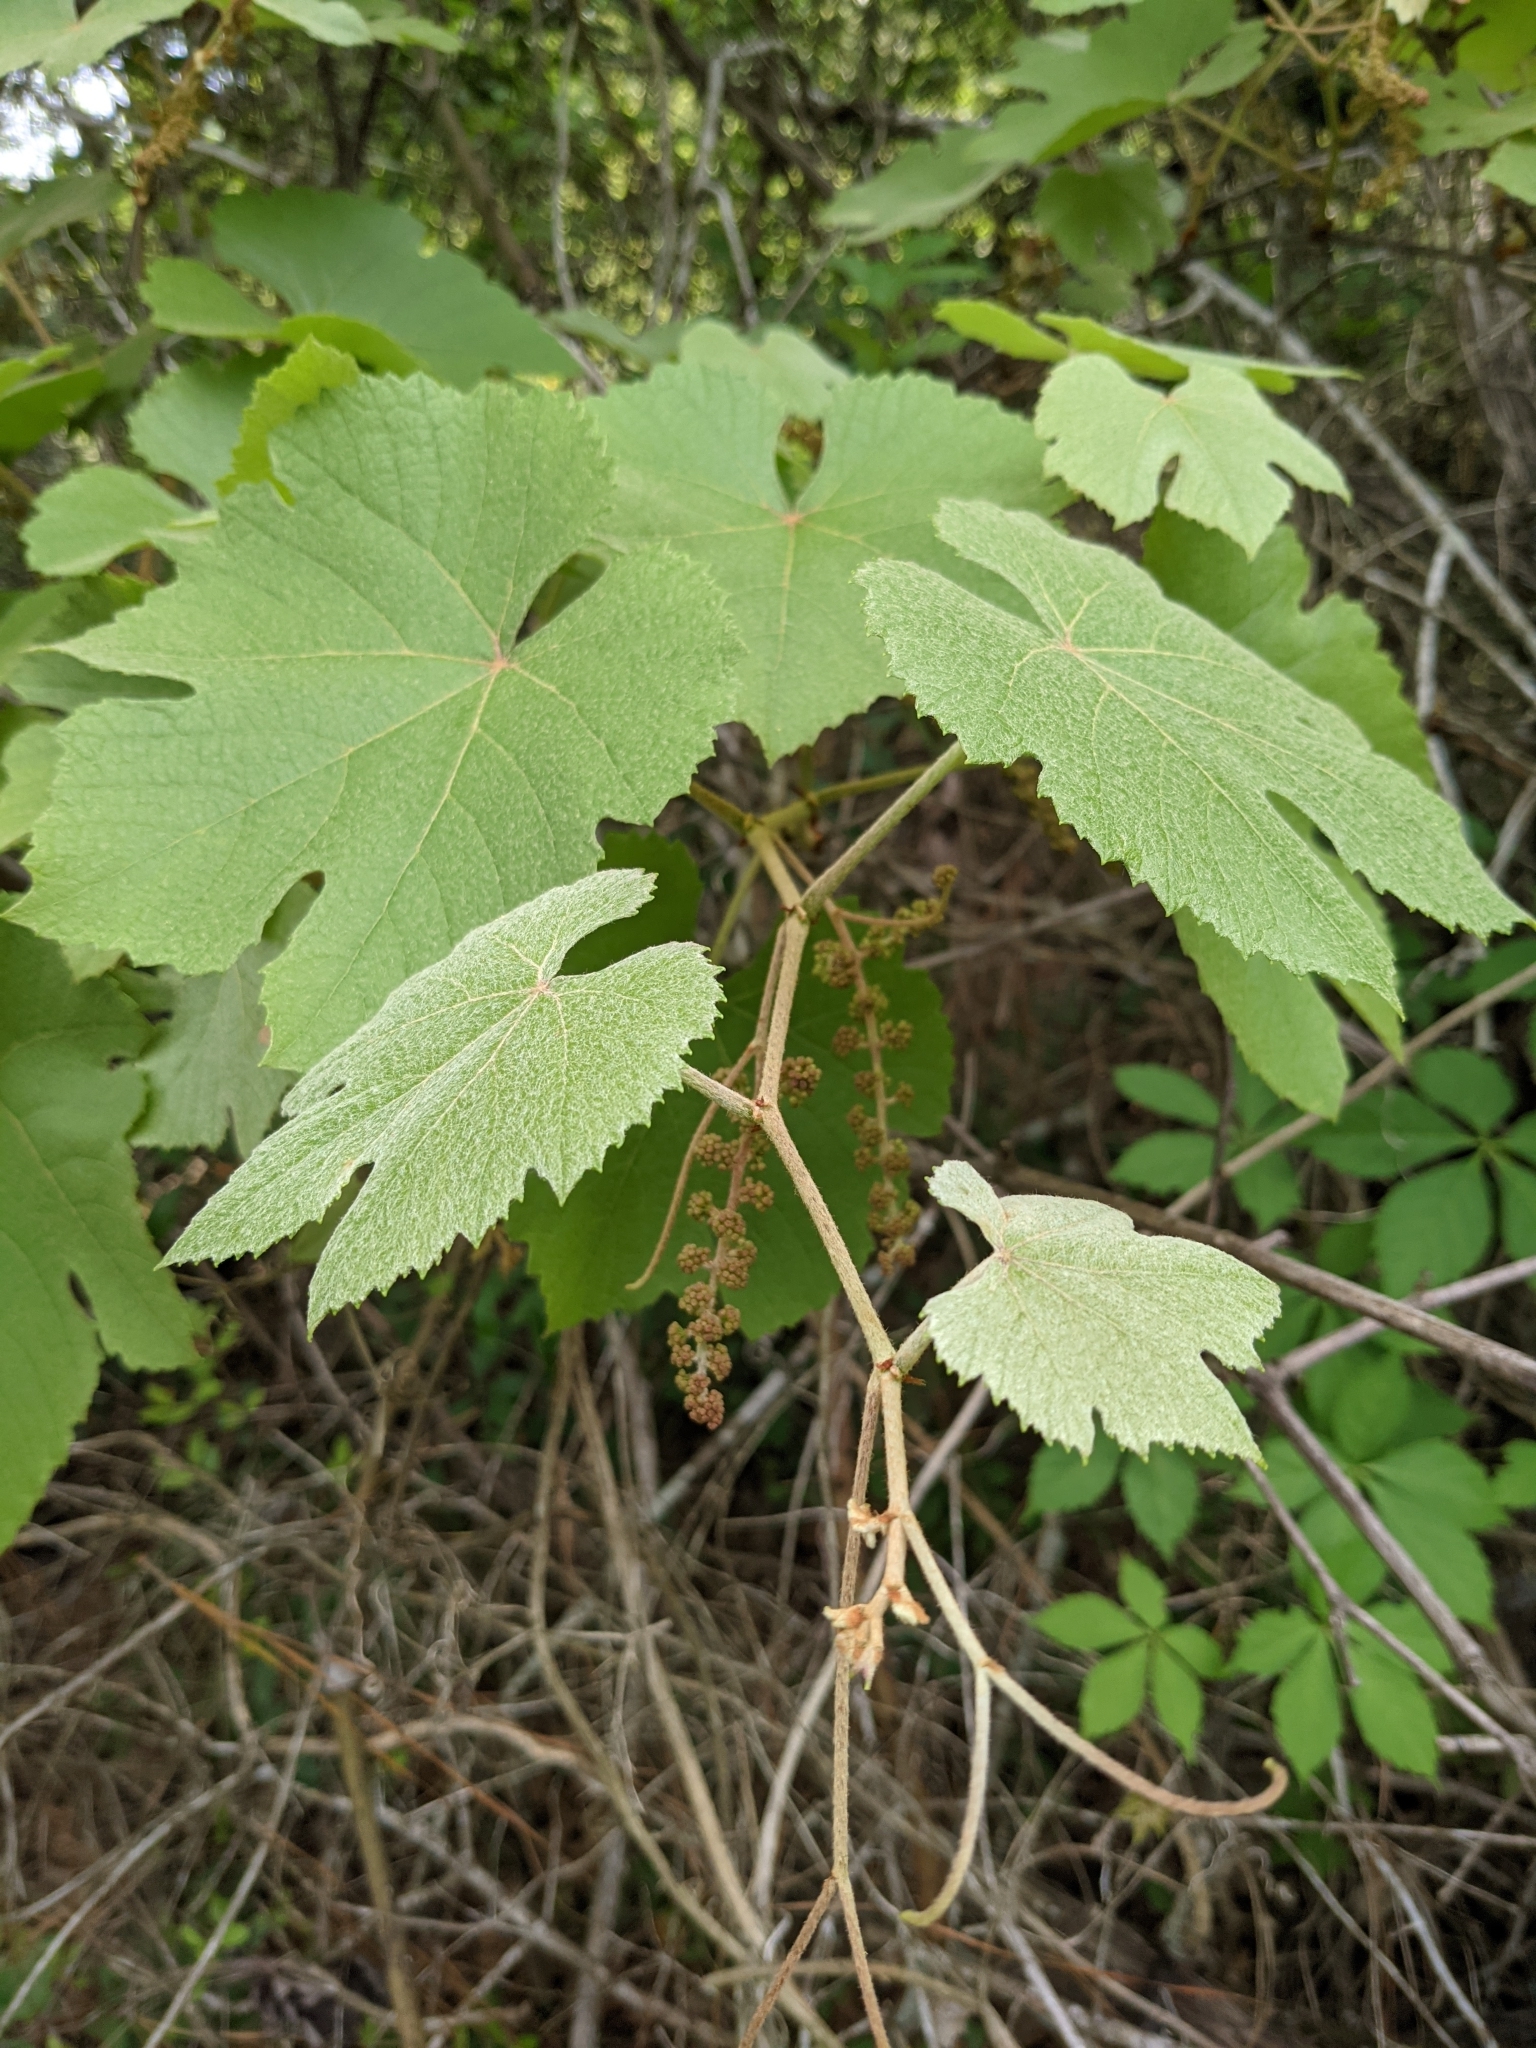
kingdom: Plantae
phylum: Tracheophyta
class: Magnoliopsida
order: Vitales
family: Vitaceae
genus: Vitis
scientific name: Vitis aestivalis
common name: Pigeon grape
